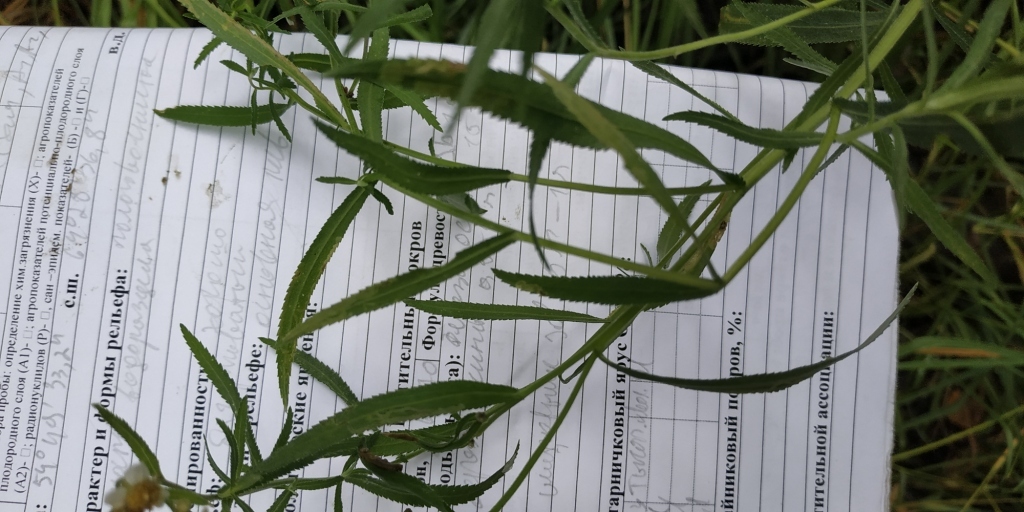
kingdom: Plantae
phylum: Tracheophyta
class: Magnoliopsida
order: Asterales
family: Asteraceae
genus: Achillea
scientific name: Achillea salicifolia
